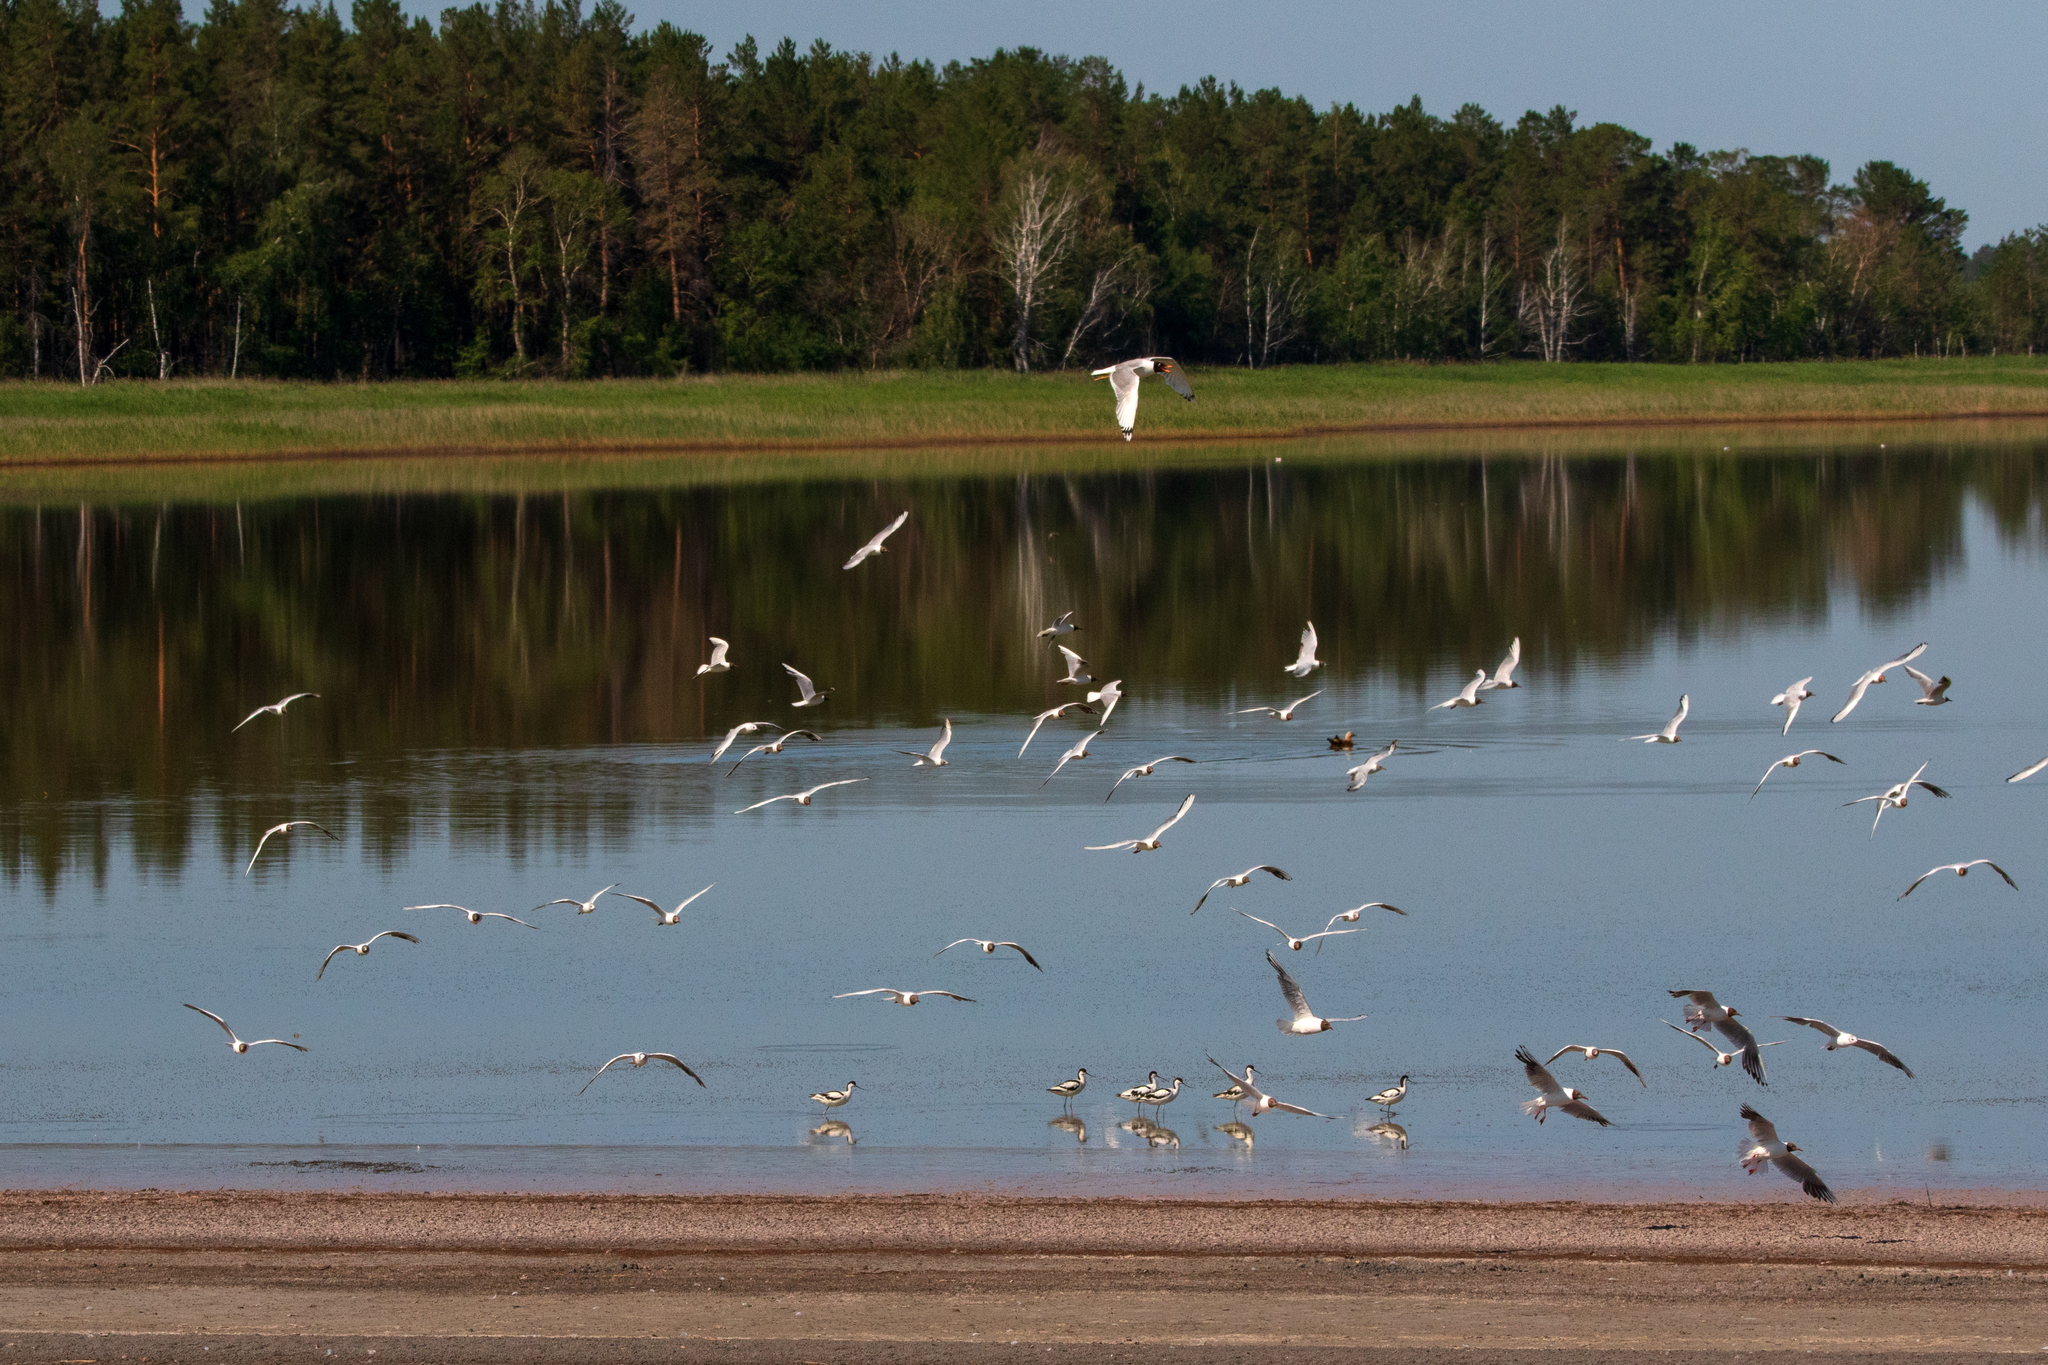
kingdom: Animalia
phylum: Chordata
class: Aves
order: Charadriiformes
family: Laridae
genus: Ichthyaetus
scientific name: Ichthyaetus ichthyaetus
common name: Pallas's gull
